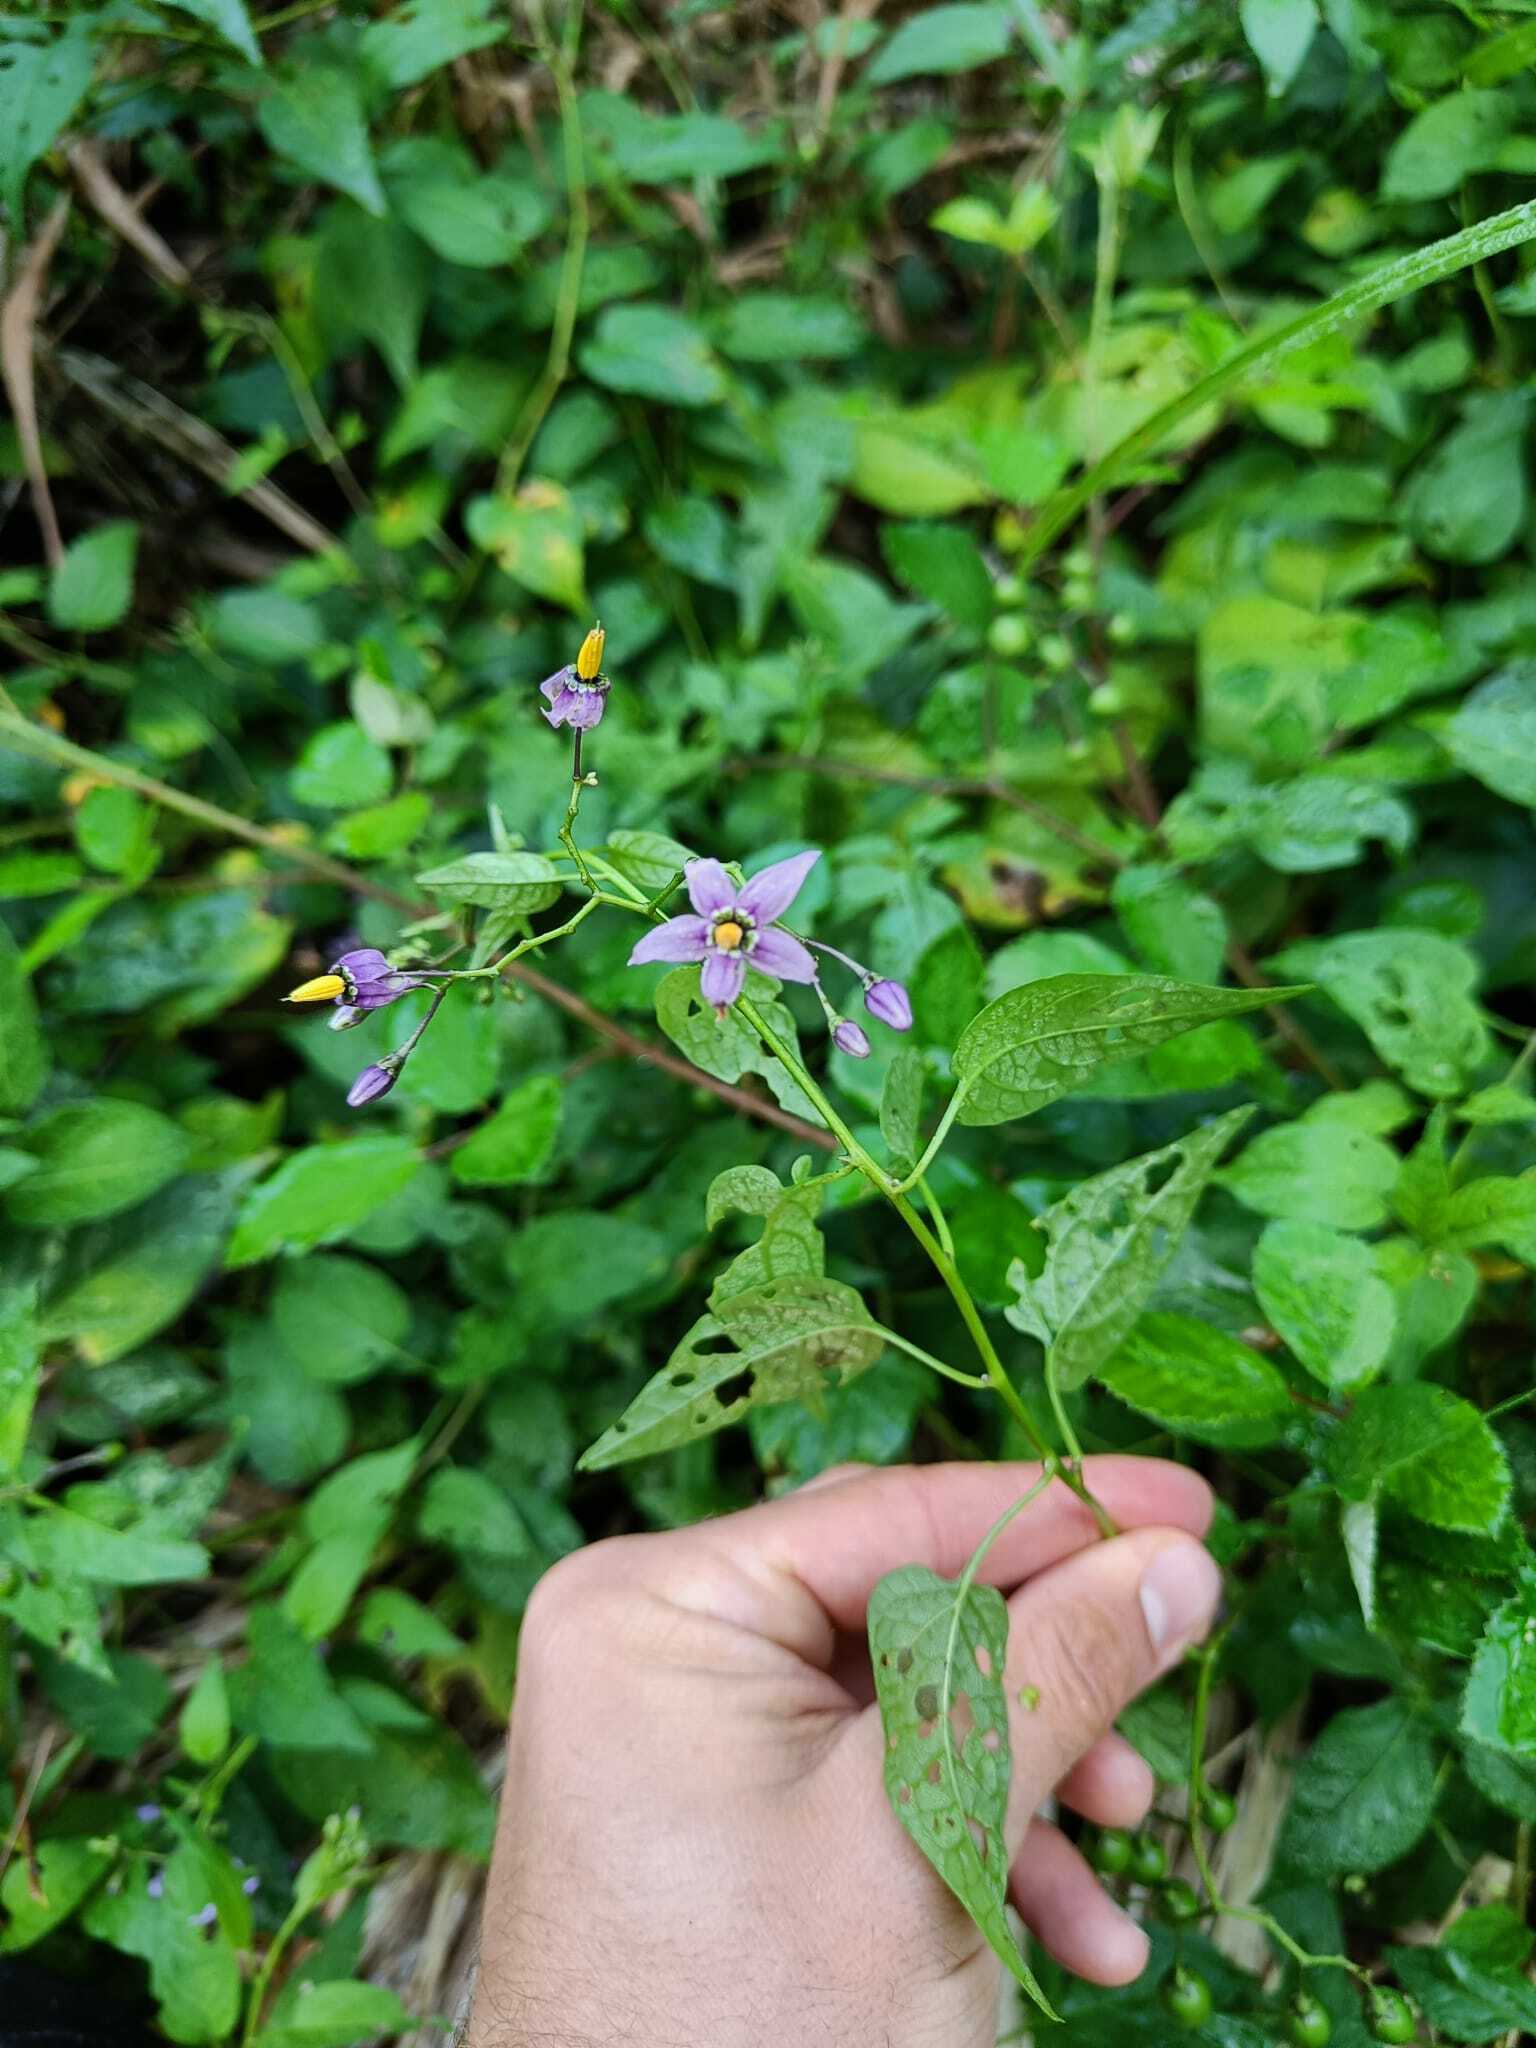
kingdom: Plantae
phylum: Tracheophyta
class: Magnoliopsida
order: Solanales
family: Solanaceae
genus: Solanum
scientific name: Solanum dulcamara
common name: Climbing nightshade
